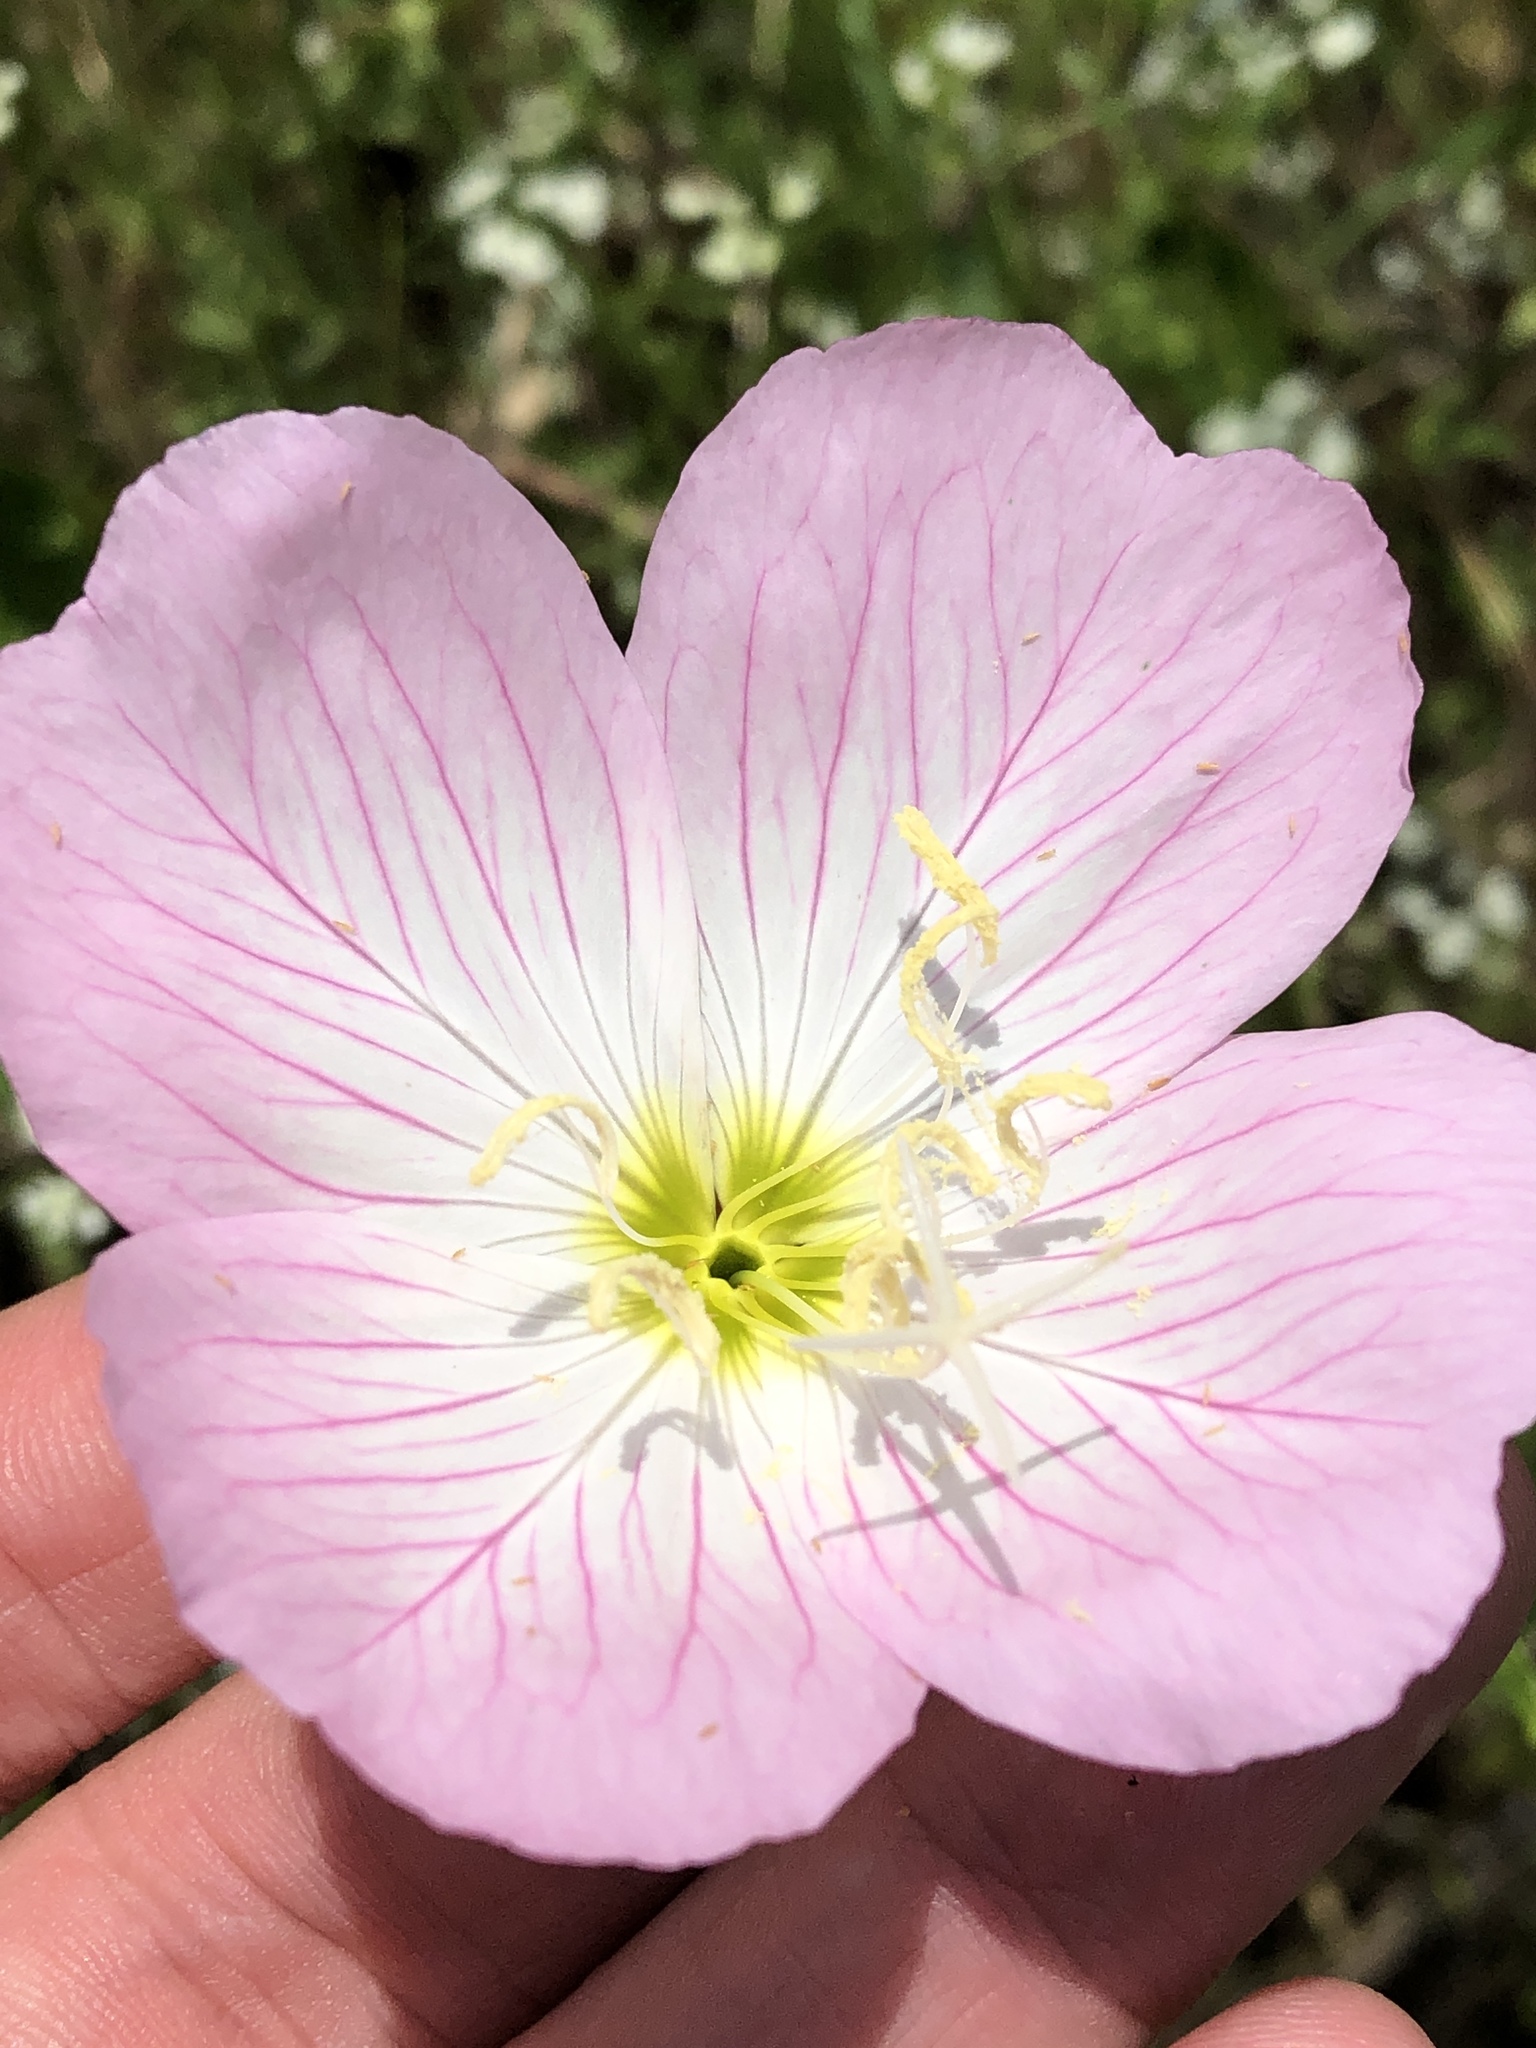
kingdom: Plantae
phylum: Tracheophyta
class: Magnoliopsida
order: Myrtales
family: Onagraceae
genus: Oenothera
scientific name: Oenothera speciosa
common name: White evening-primrose
